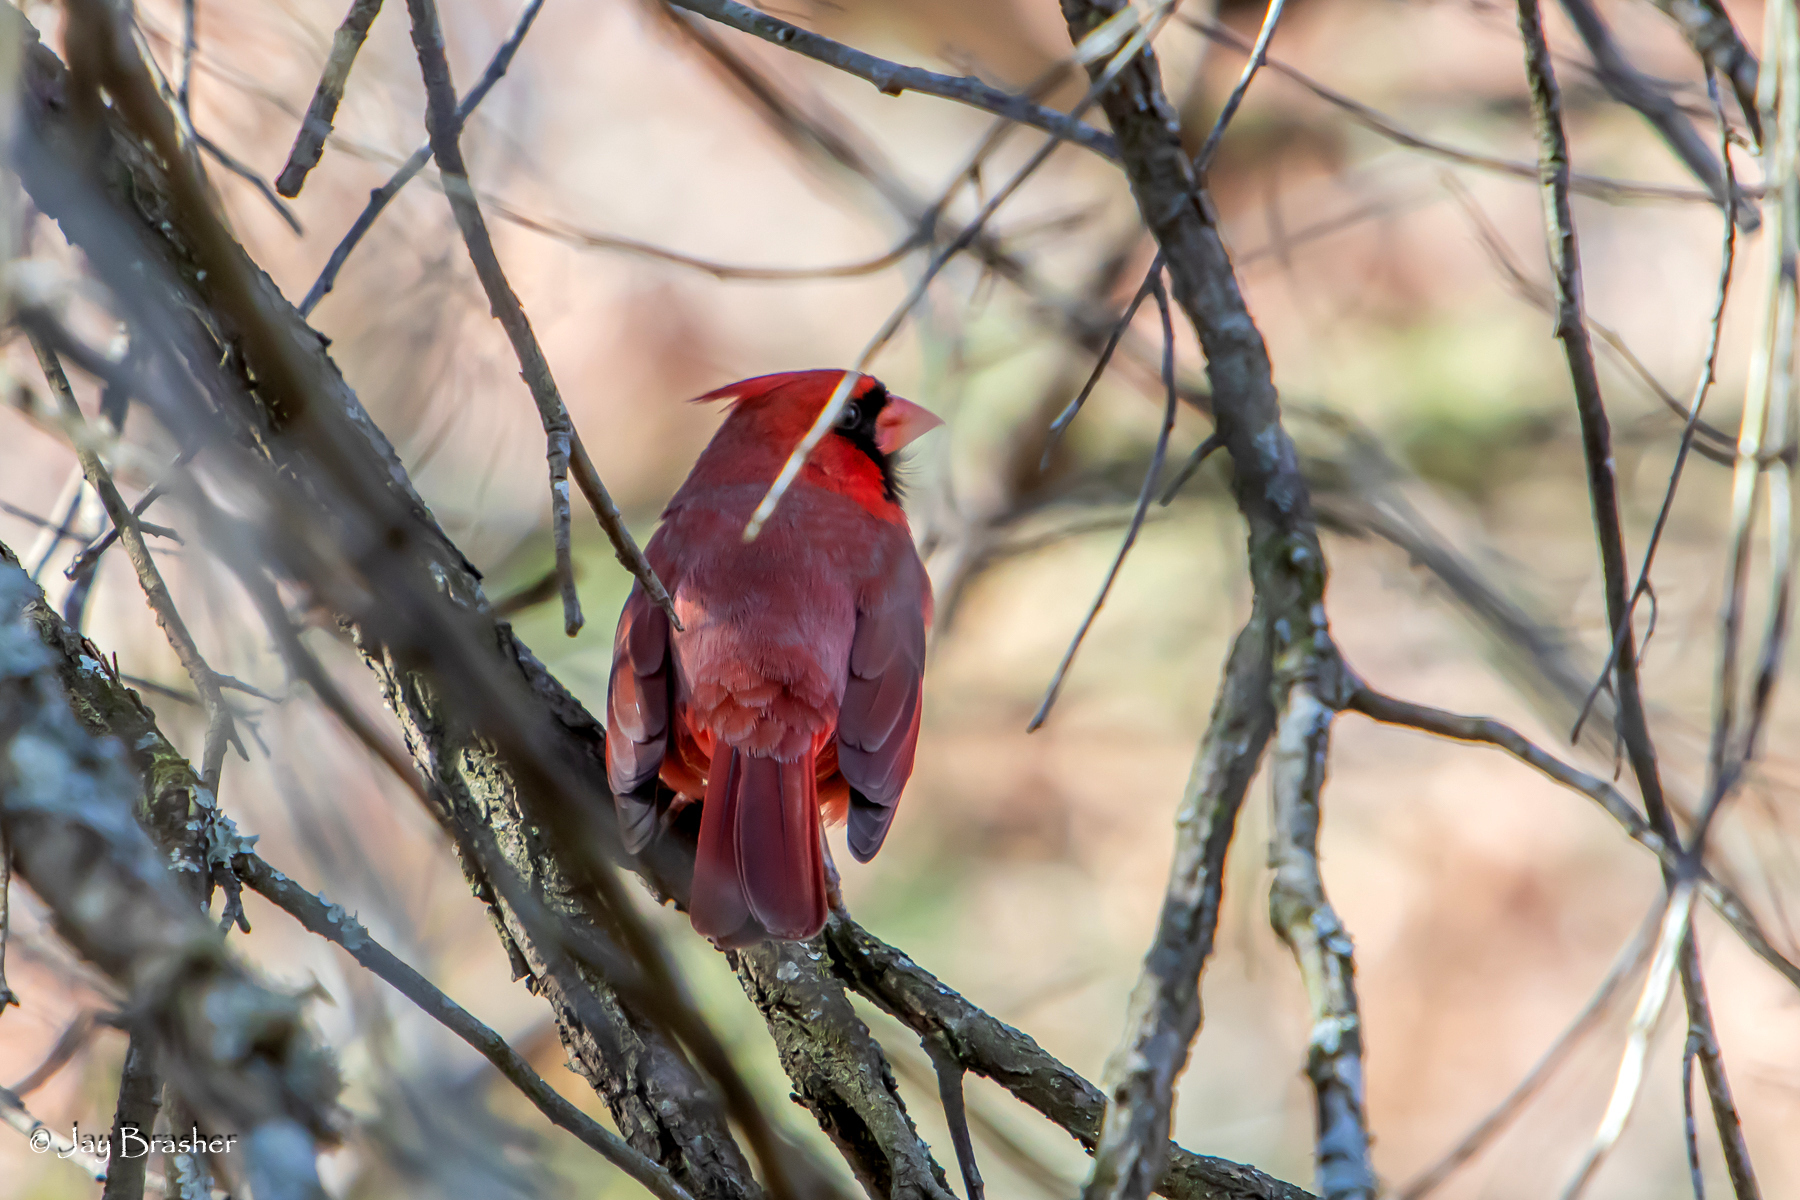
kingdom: Animalia
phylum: Chordata
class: Aves
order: Passeriformes
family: Cardinalidae
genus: Cardinalis
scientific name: Cardinalis cardinalis
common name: Northern cardinal
